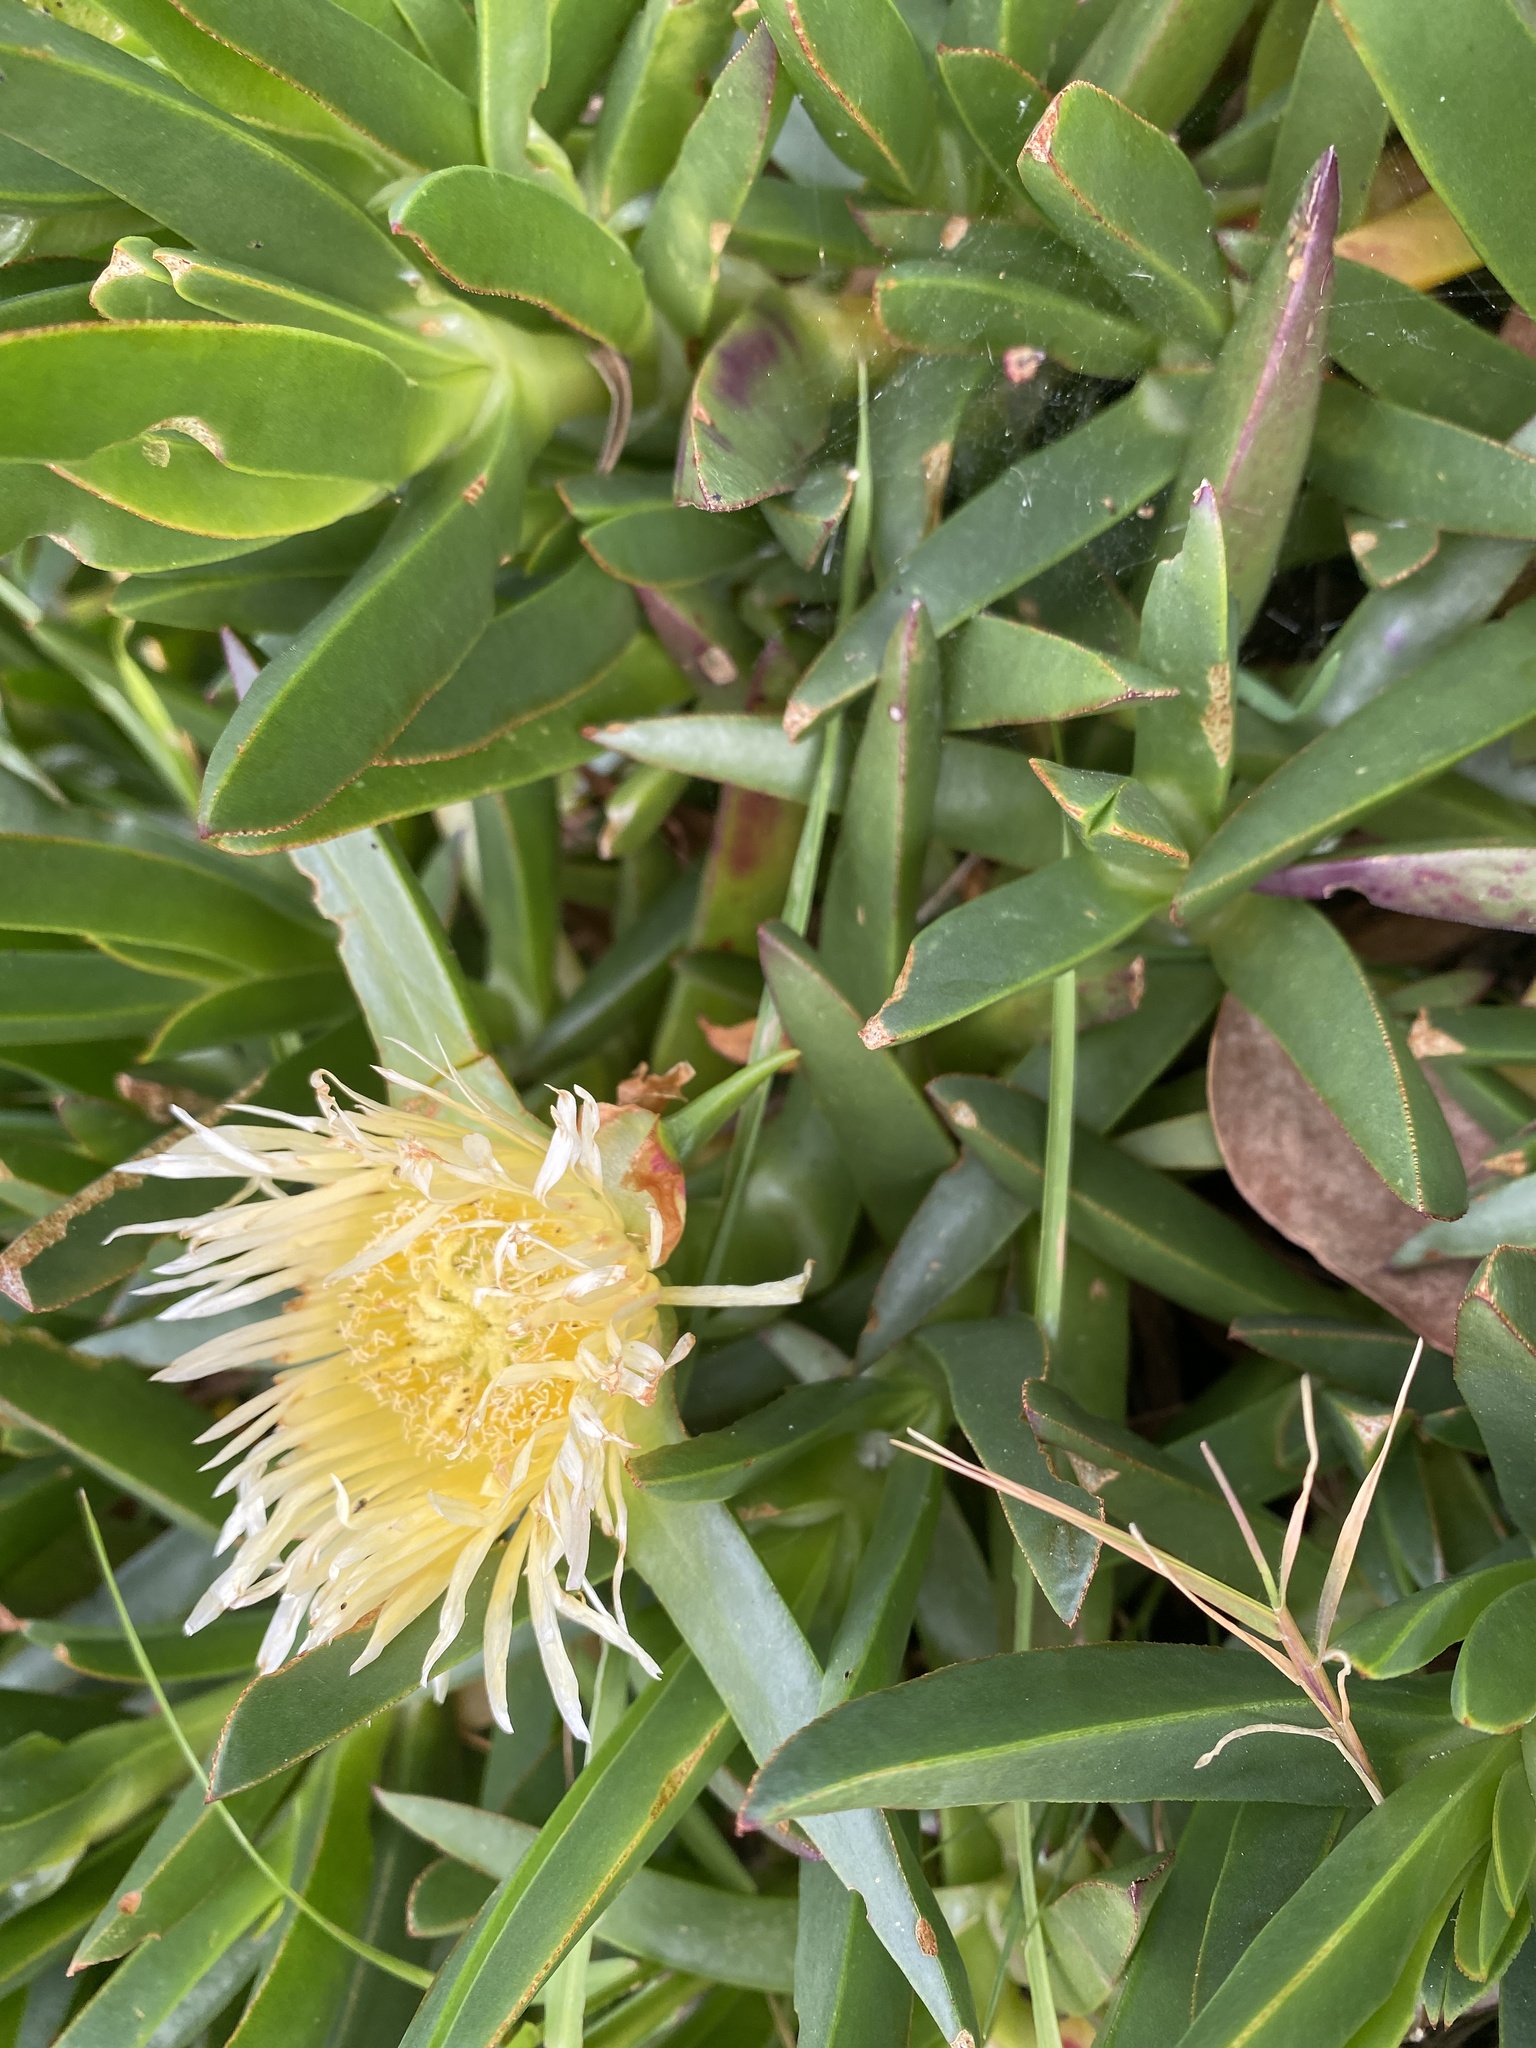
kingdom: Plantae
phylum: Tracheophyta
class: Magnoliopsida
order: Caryophyllales
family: Aizoaceae
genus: Carpobrotus
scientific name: Carpobrotus edulis
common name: Hottentot-fig
